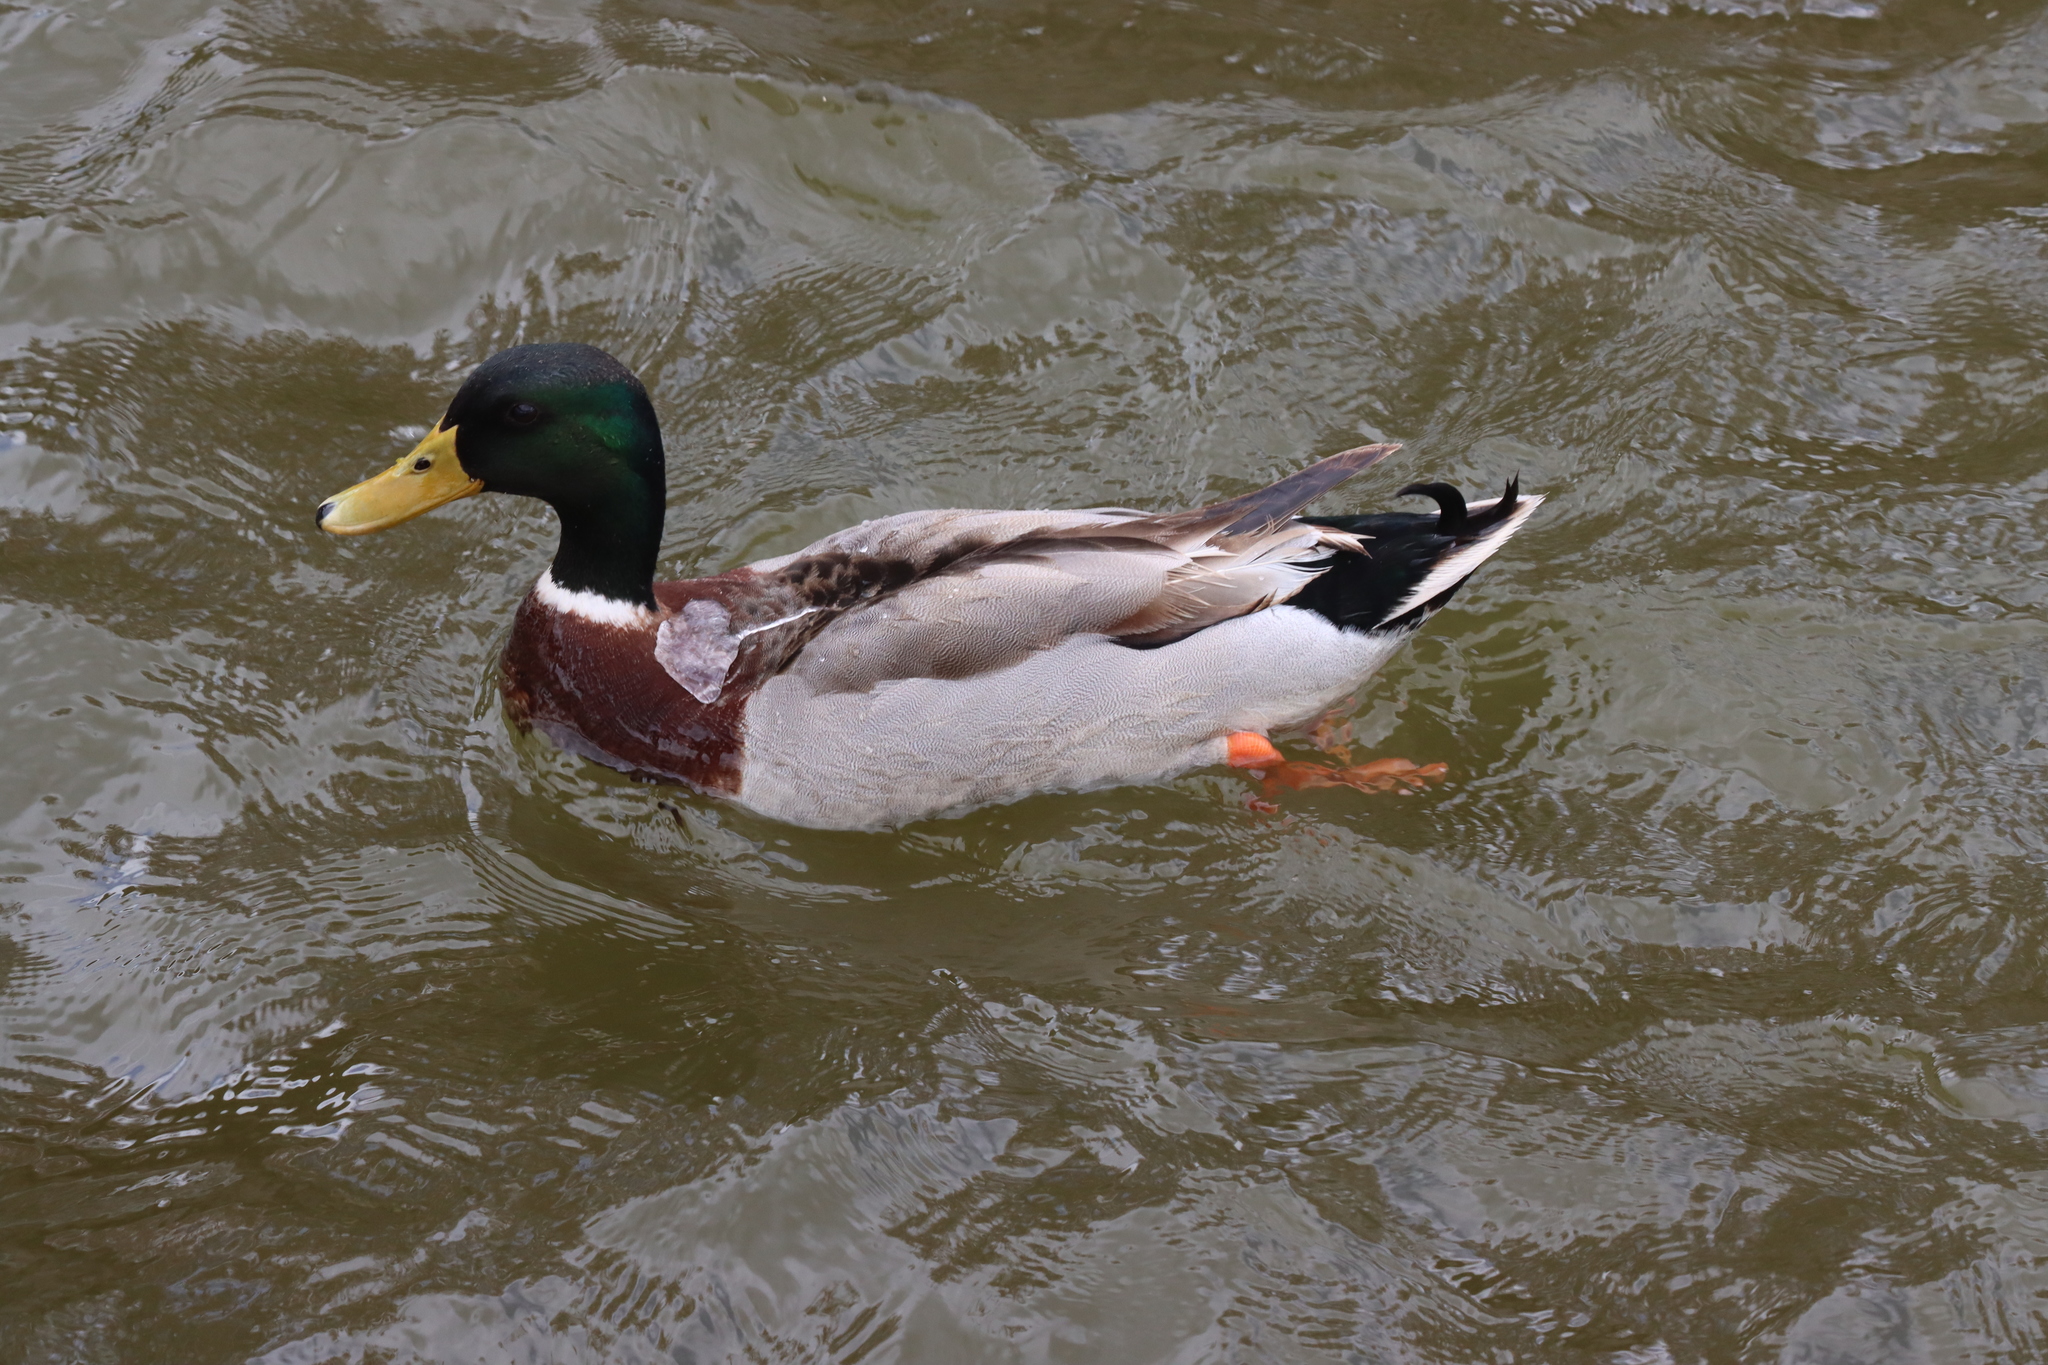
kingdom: Animalia
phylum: Chordata
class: Aves
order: Anseriformes
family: Anatidae
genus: Anas
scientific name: Anas platyrhynchos
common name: Mallard
